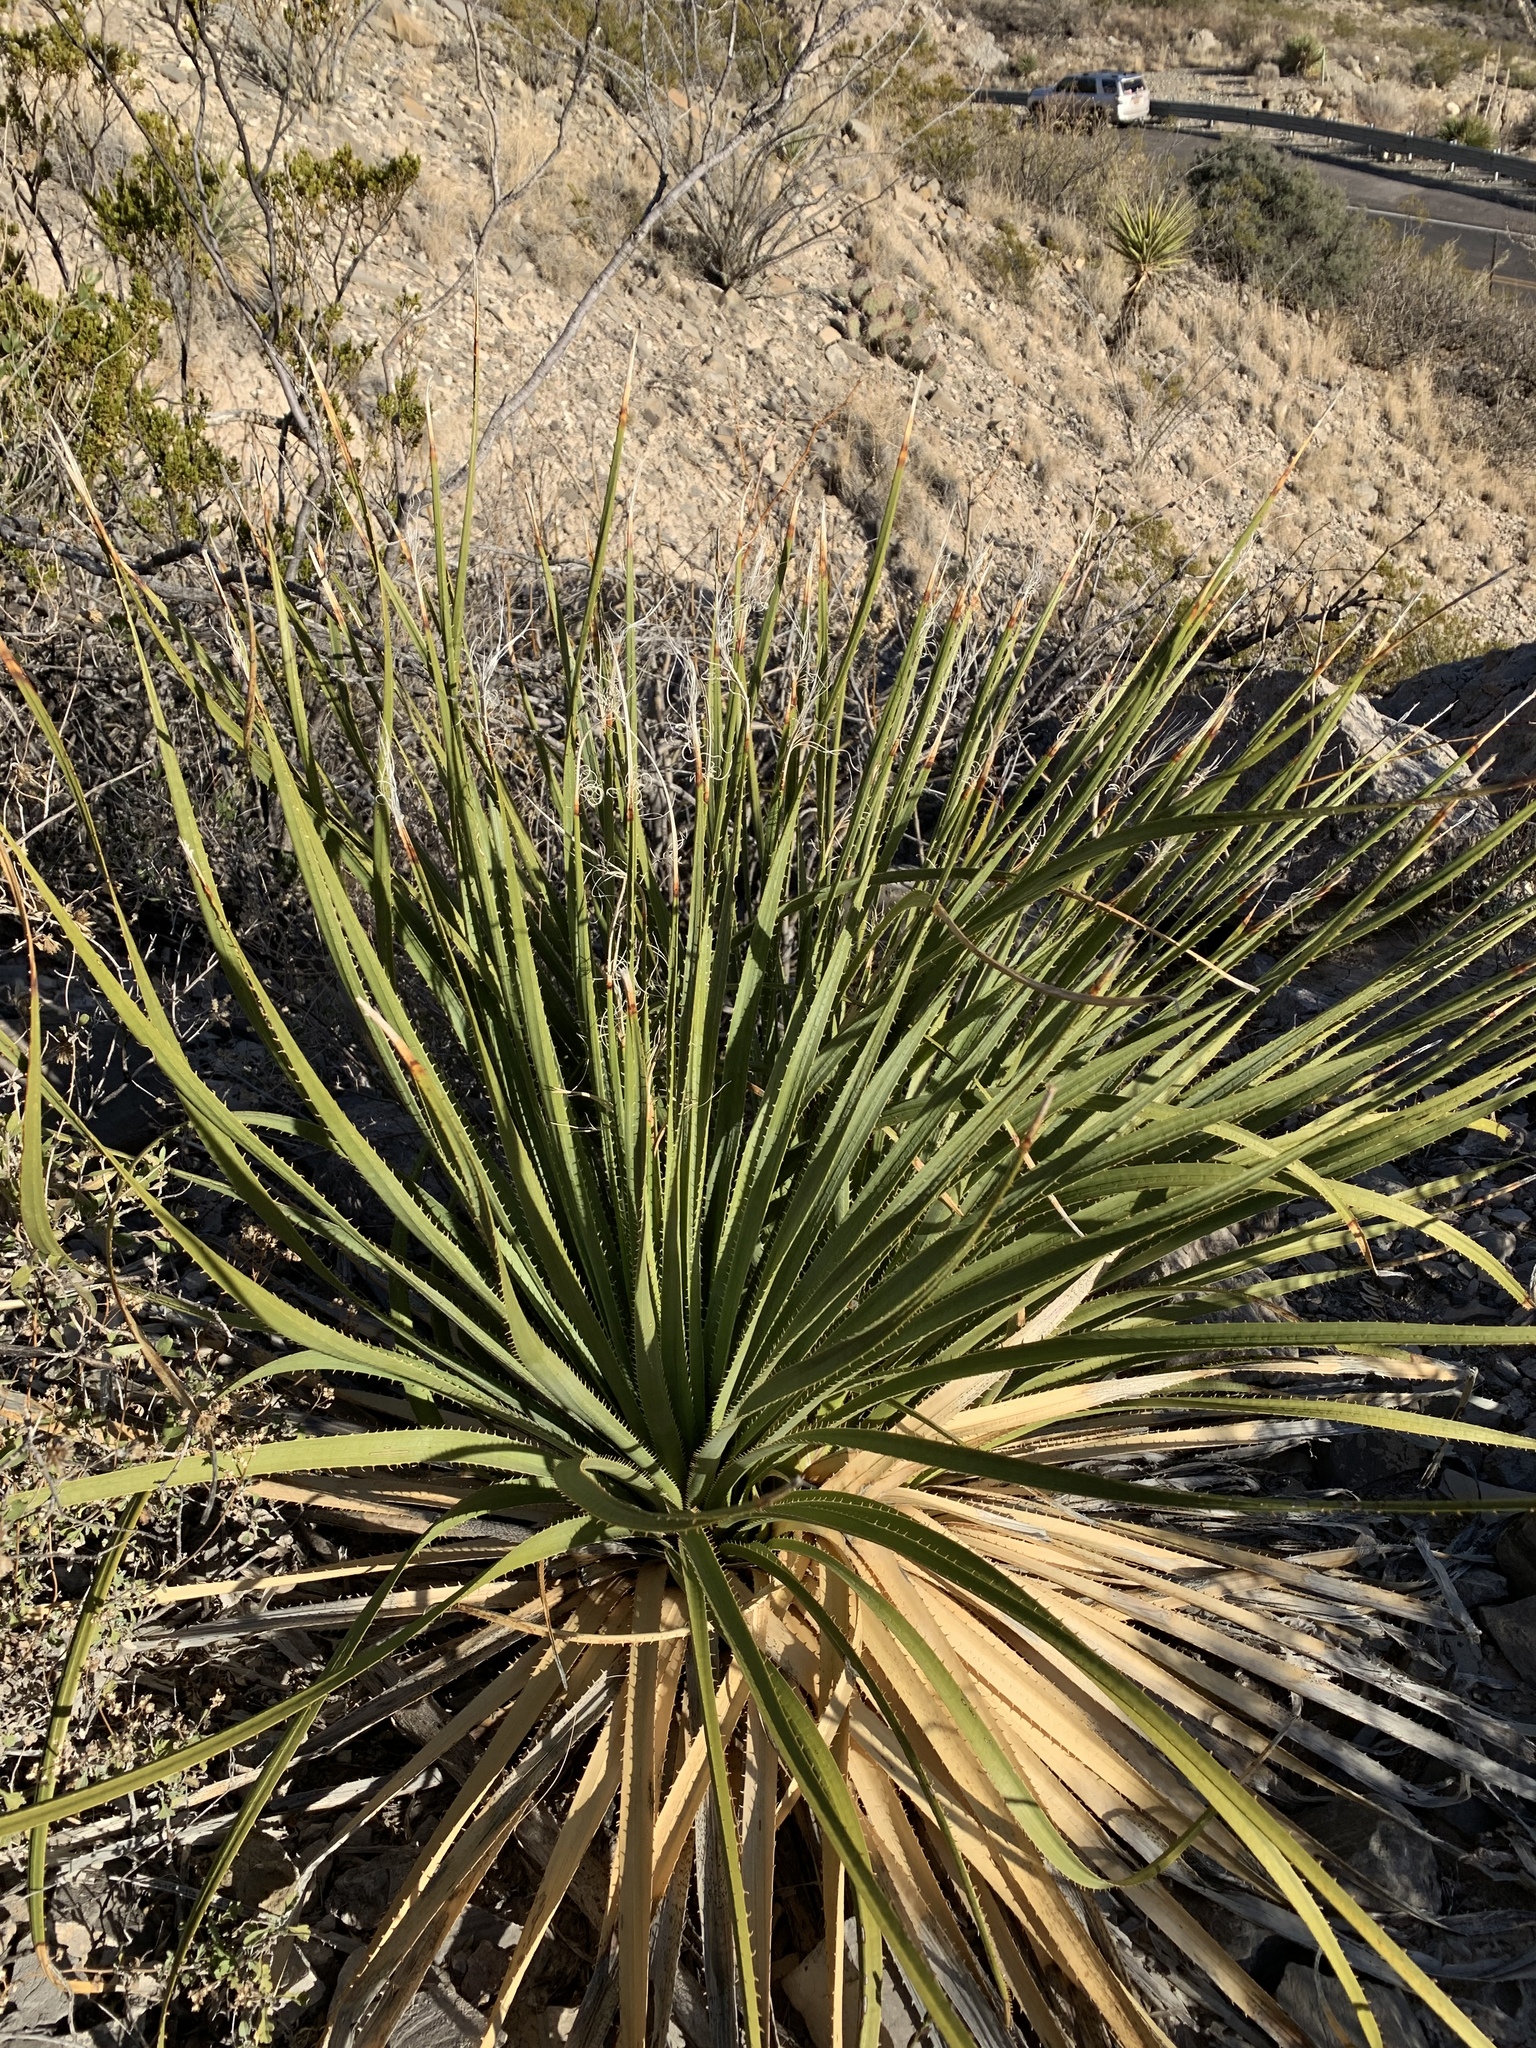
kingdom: Plantae
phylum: Tracheophyta
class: Liliopsida
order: Asparagales
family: Asparagaceae
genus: Dasylirion
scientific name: Dasylirion wheeleri
